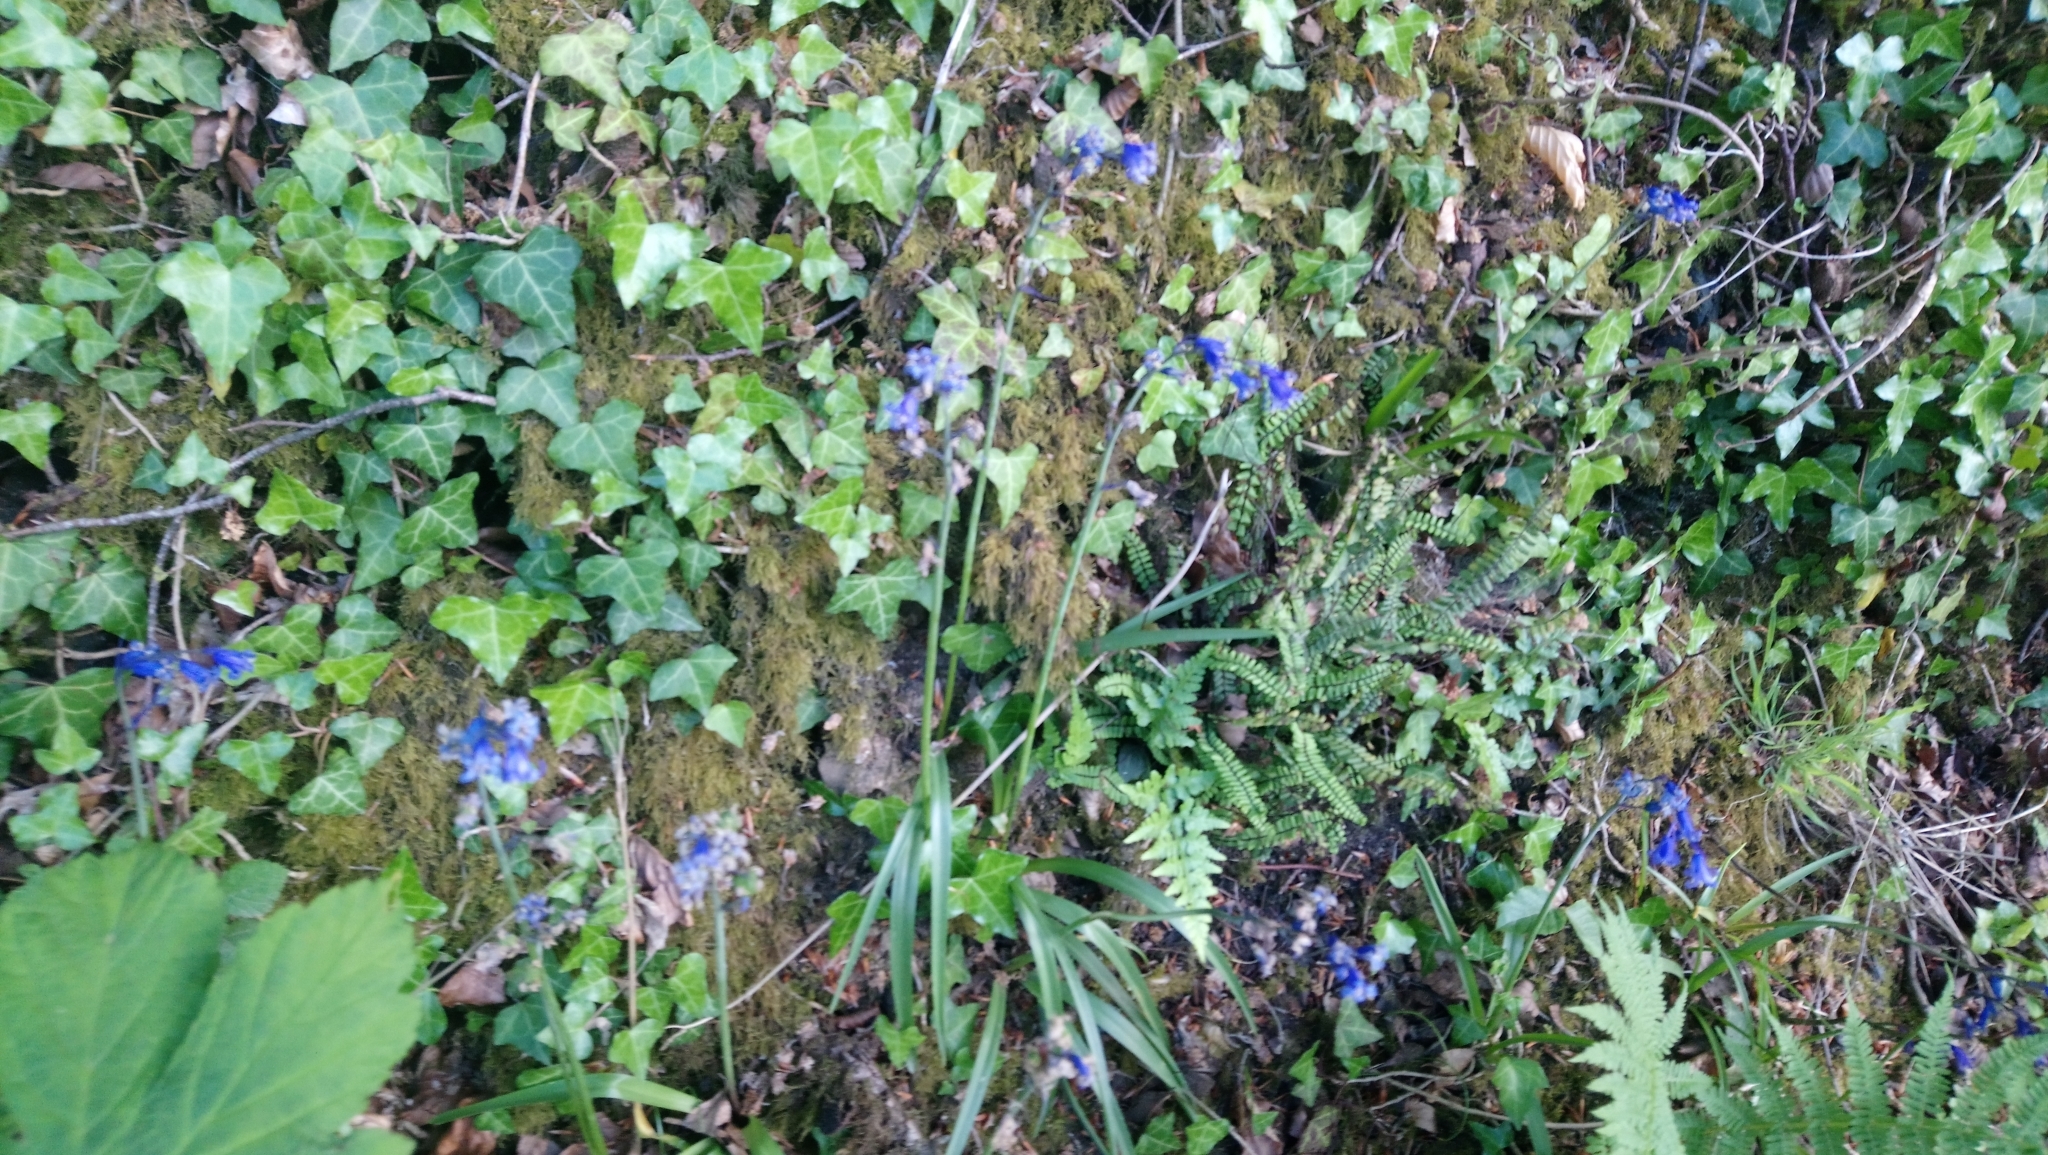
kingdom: Plantae
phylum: Tracheophyta
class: Liliopsida
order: Asparagales
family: Asparagaceae
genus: Hyacinthoides
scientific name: Hyacinthoides non-scripta
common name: Bluebell
